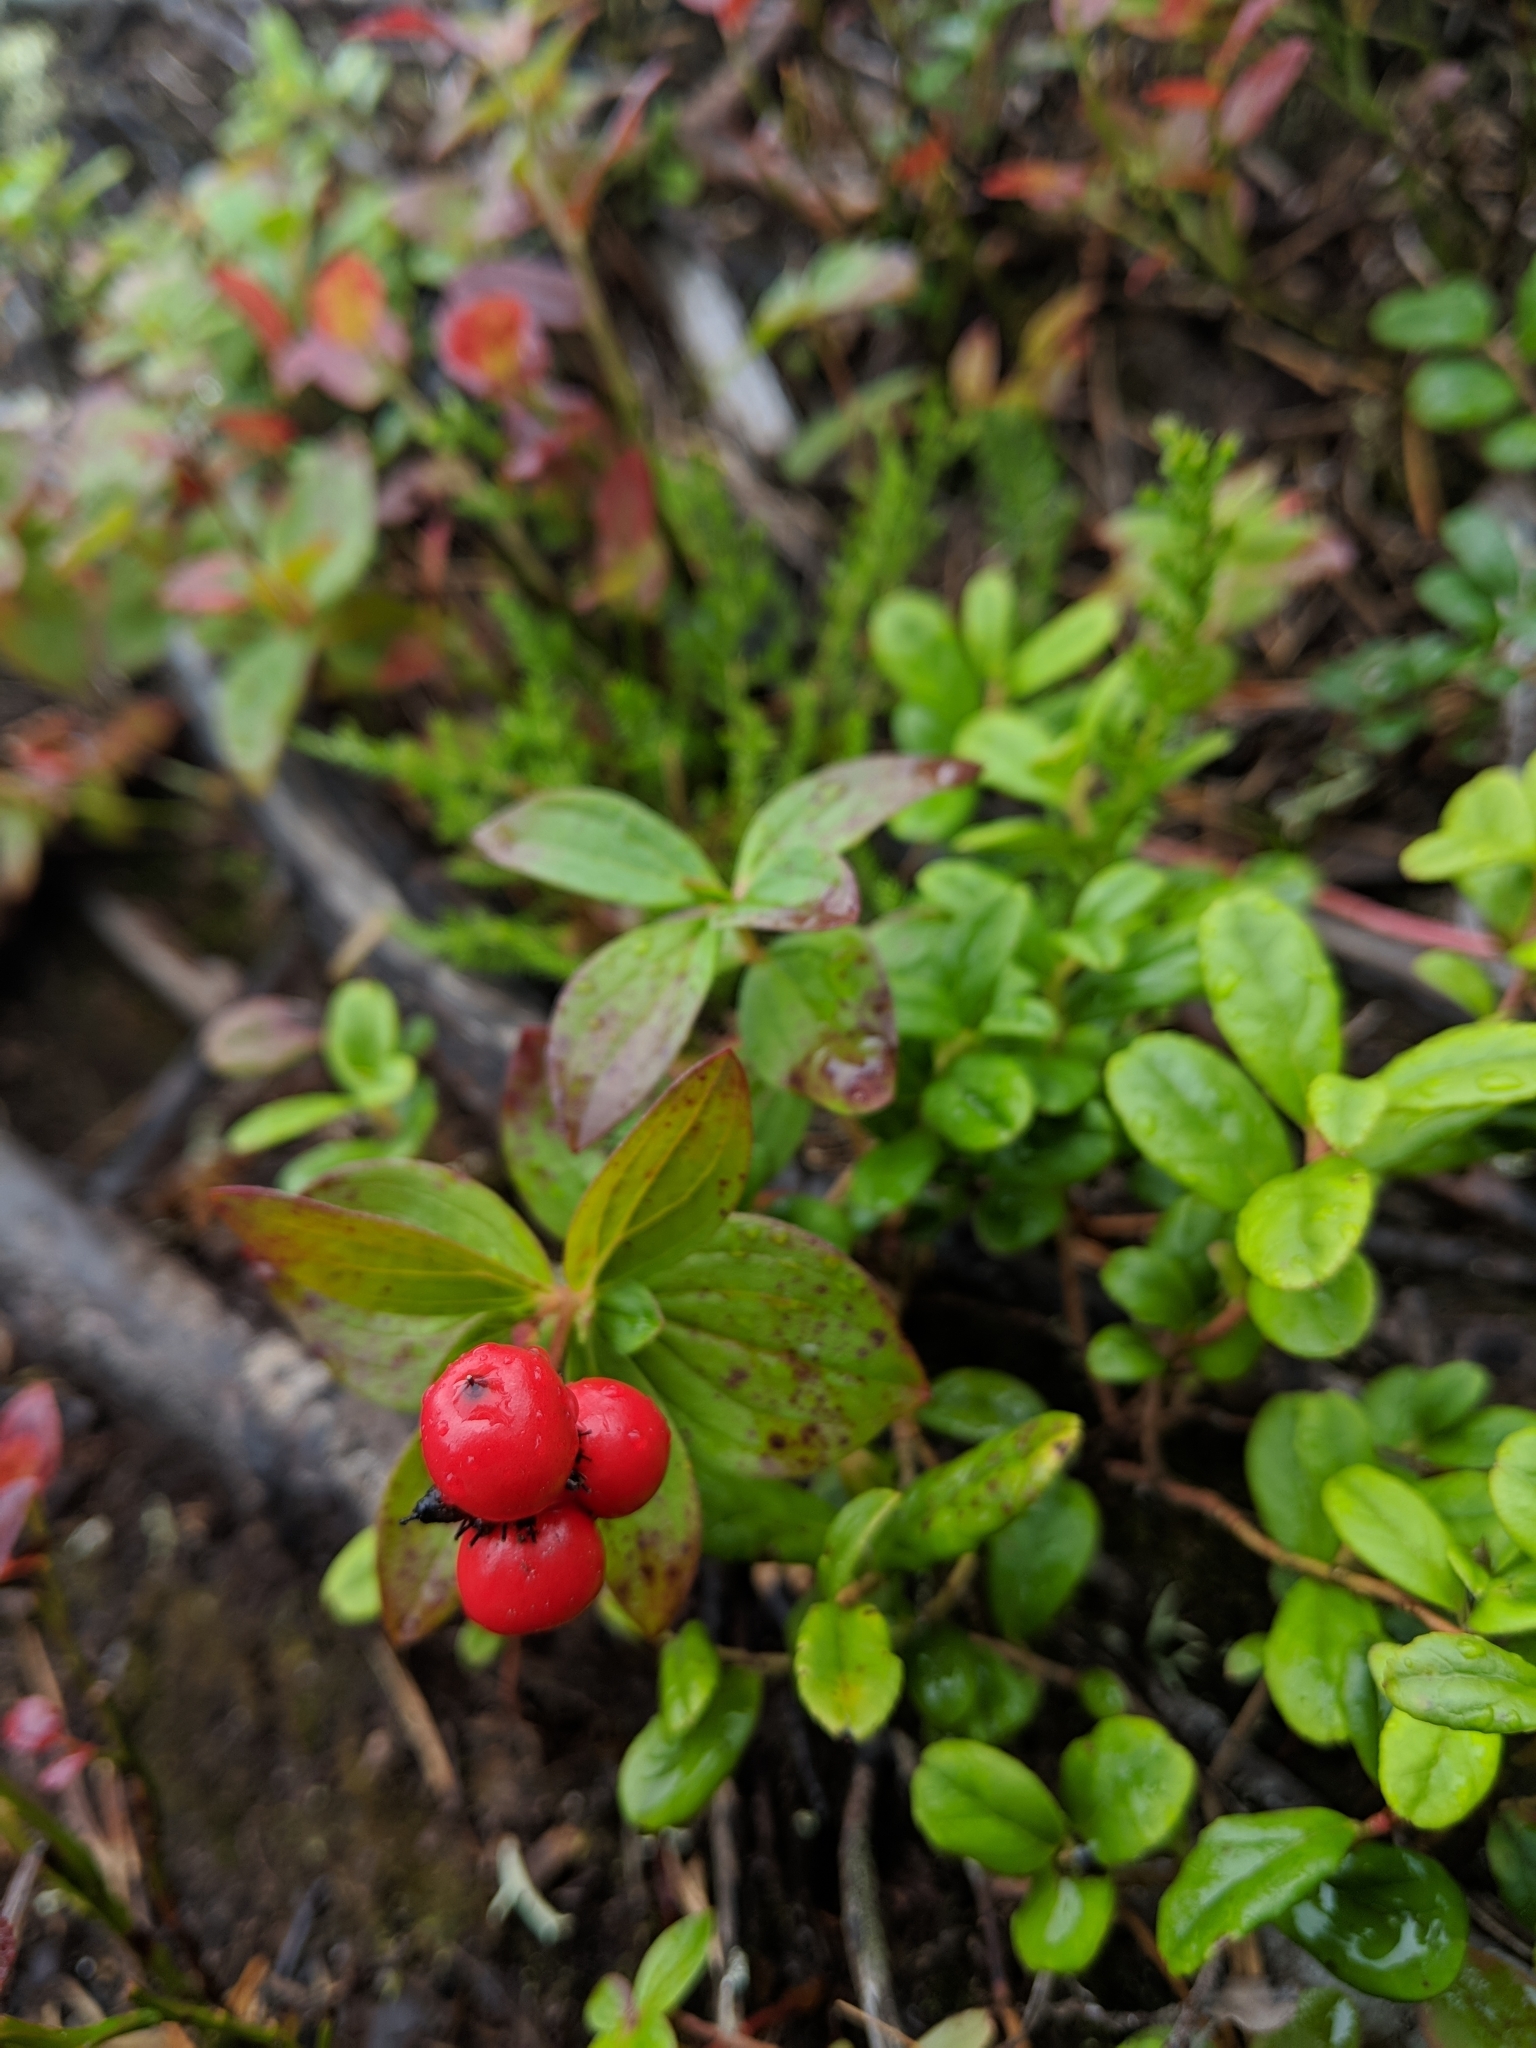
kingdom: Plantae
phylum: Tracheophyta
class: Magnoliopsida
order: Cornales
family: Cornaceae
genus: Cornus
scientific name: Cornus suecica
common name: Dwarf cornel
